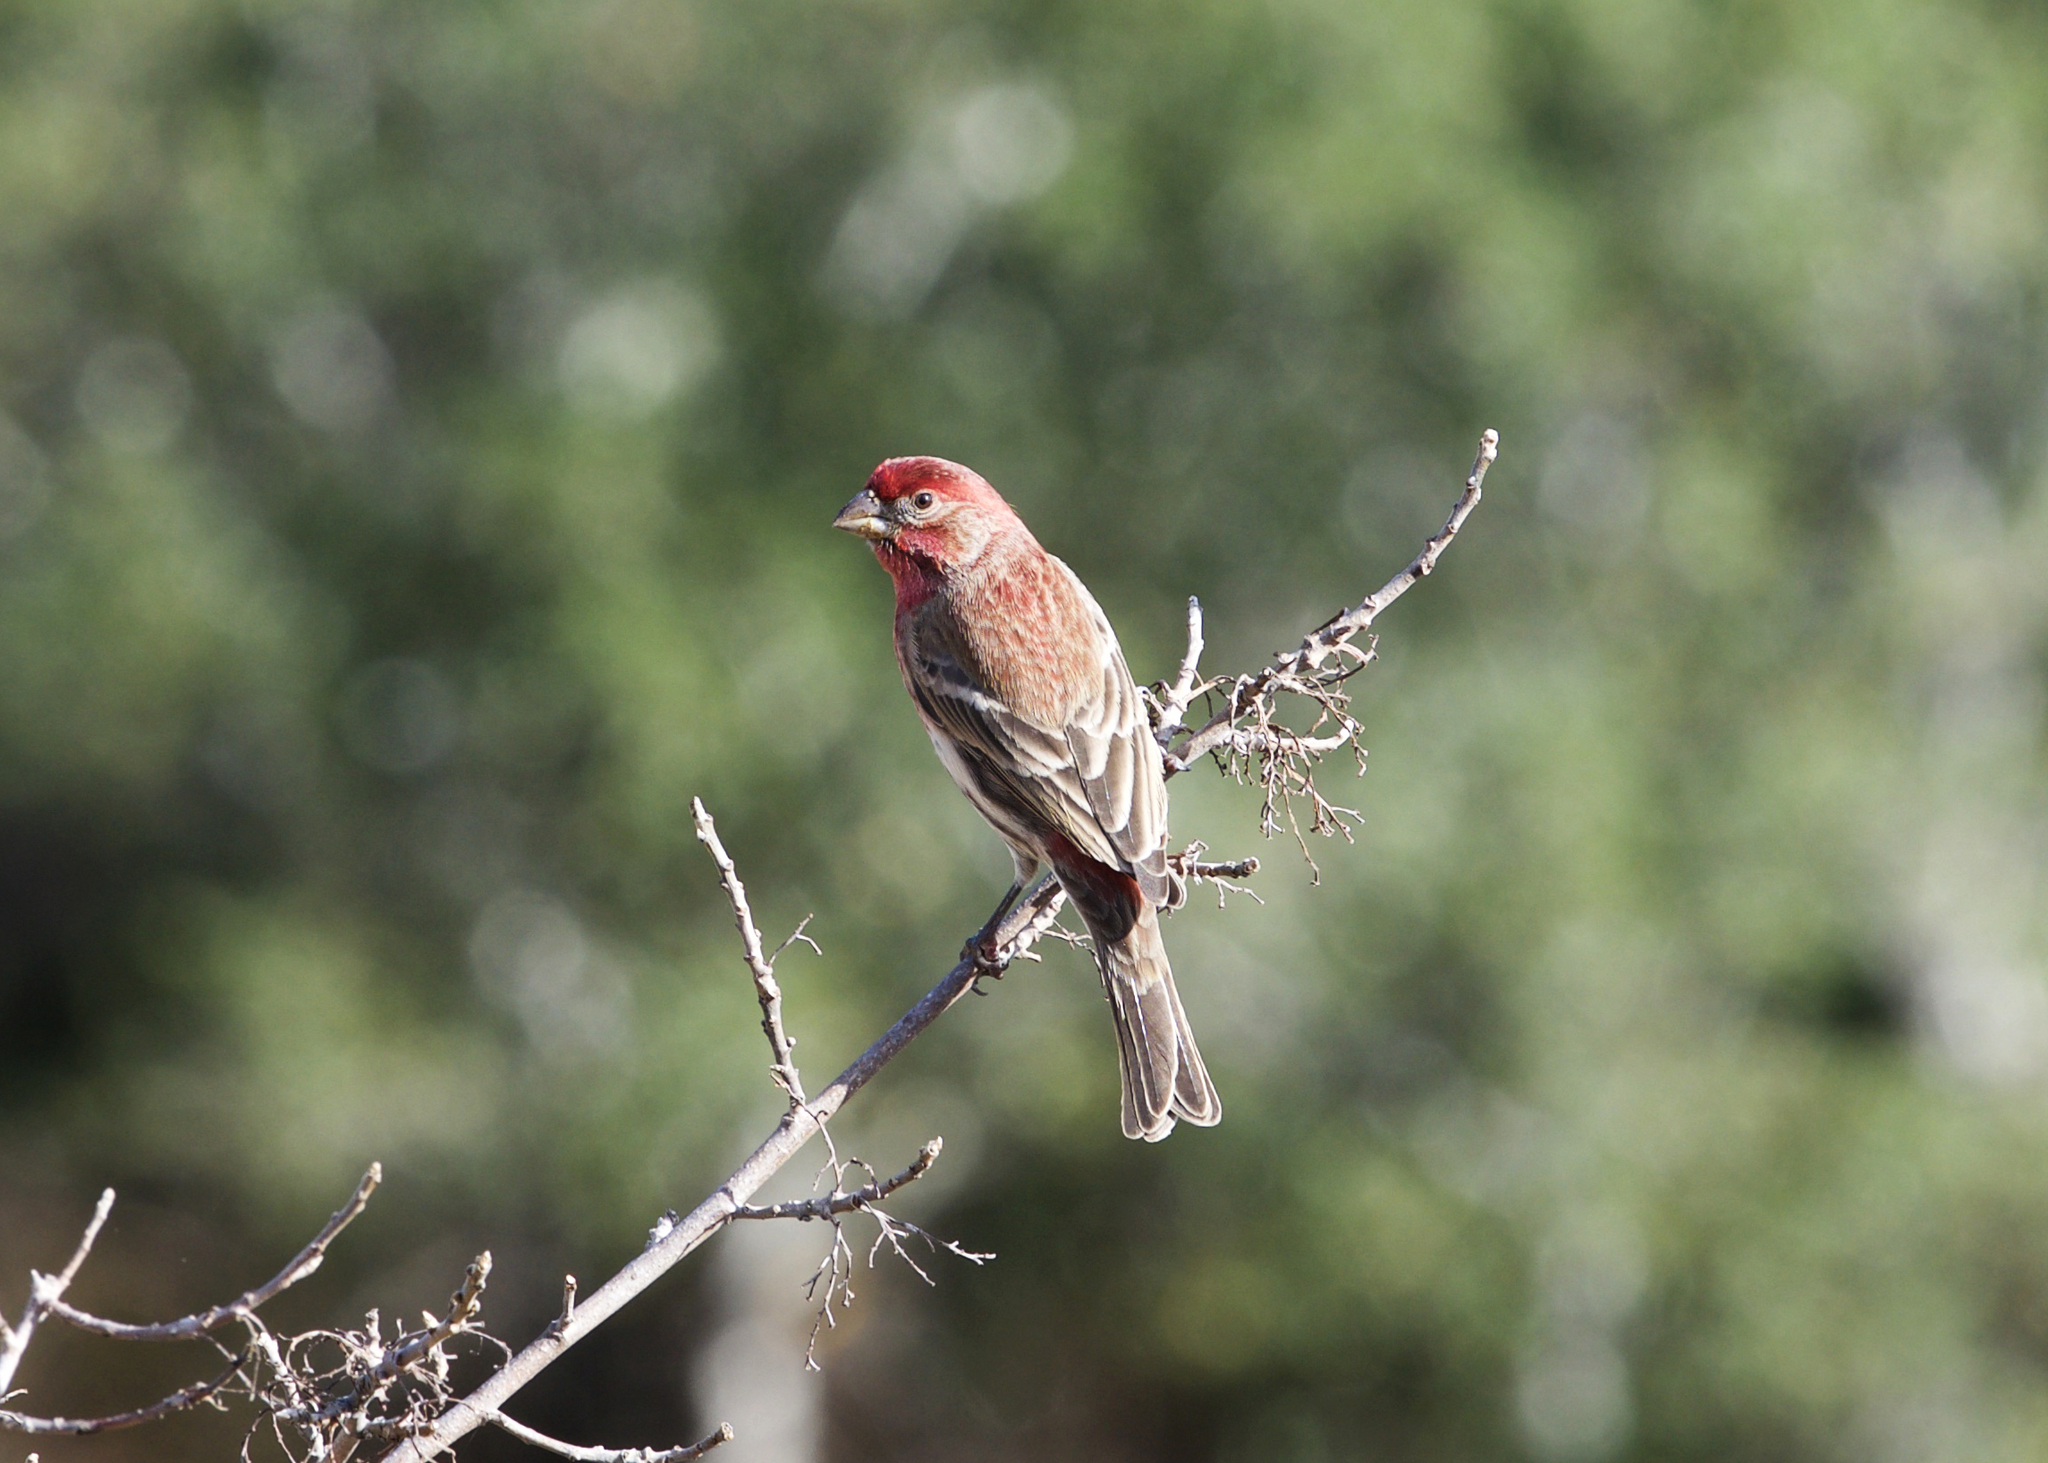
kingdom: Animalia
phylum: Chordata
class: Aves
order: Passeriformes
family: Fringillidae
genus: Haemorhous
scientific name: Haemorhous mexicanus
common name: House finch
